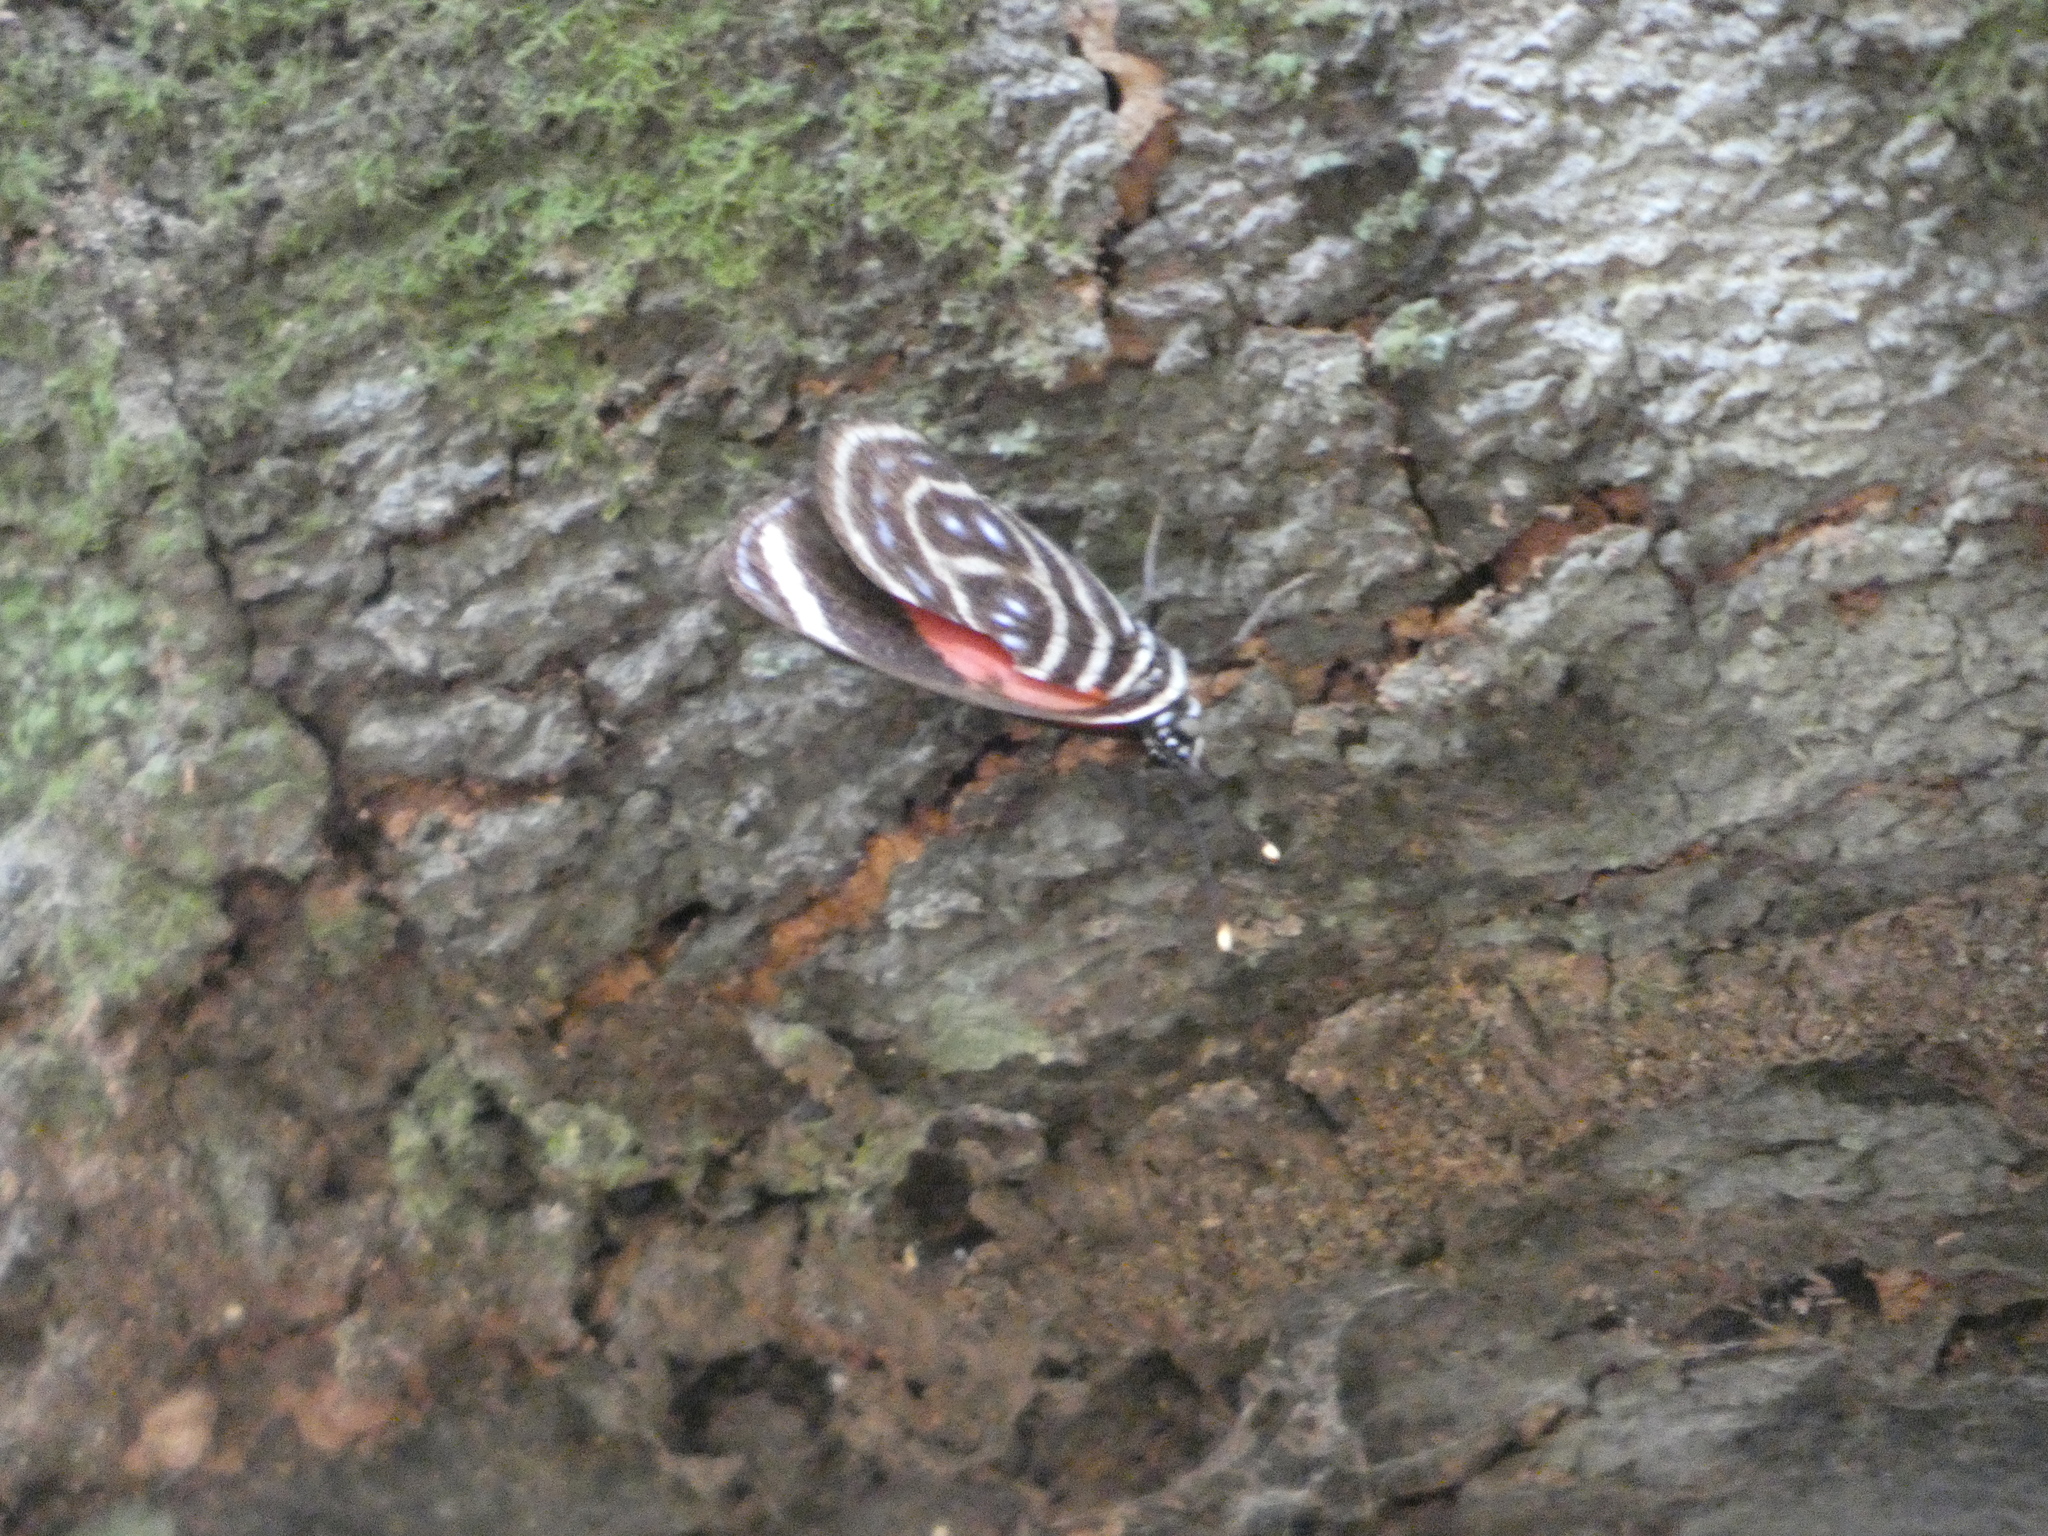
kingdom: Animalia
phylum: Arthropoda
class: Insecta
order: Lepidoptera
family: Nymphalidae
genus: Catagramma
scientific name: Catagramma pygas
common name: Godart's numberwing
